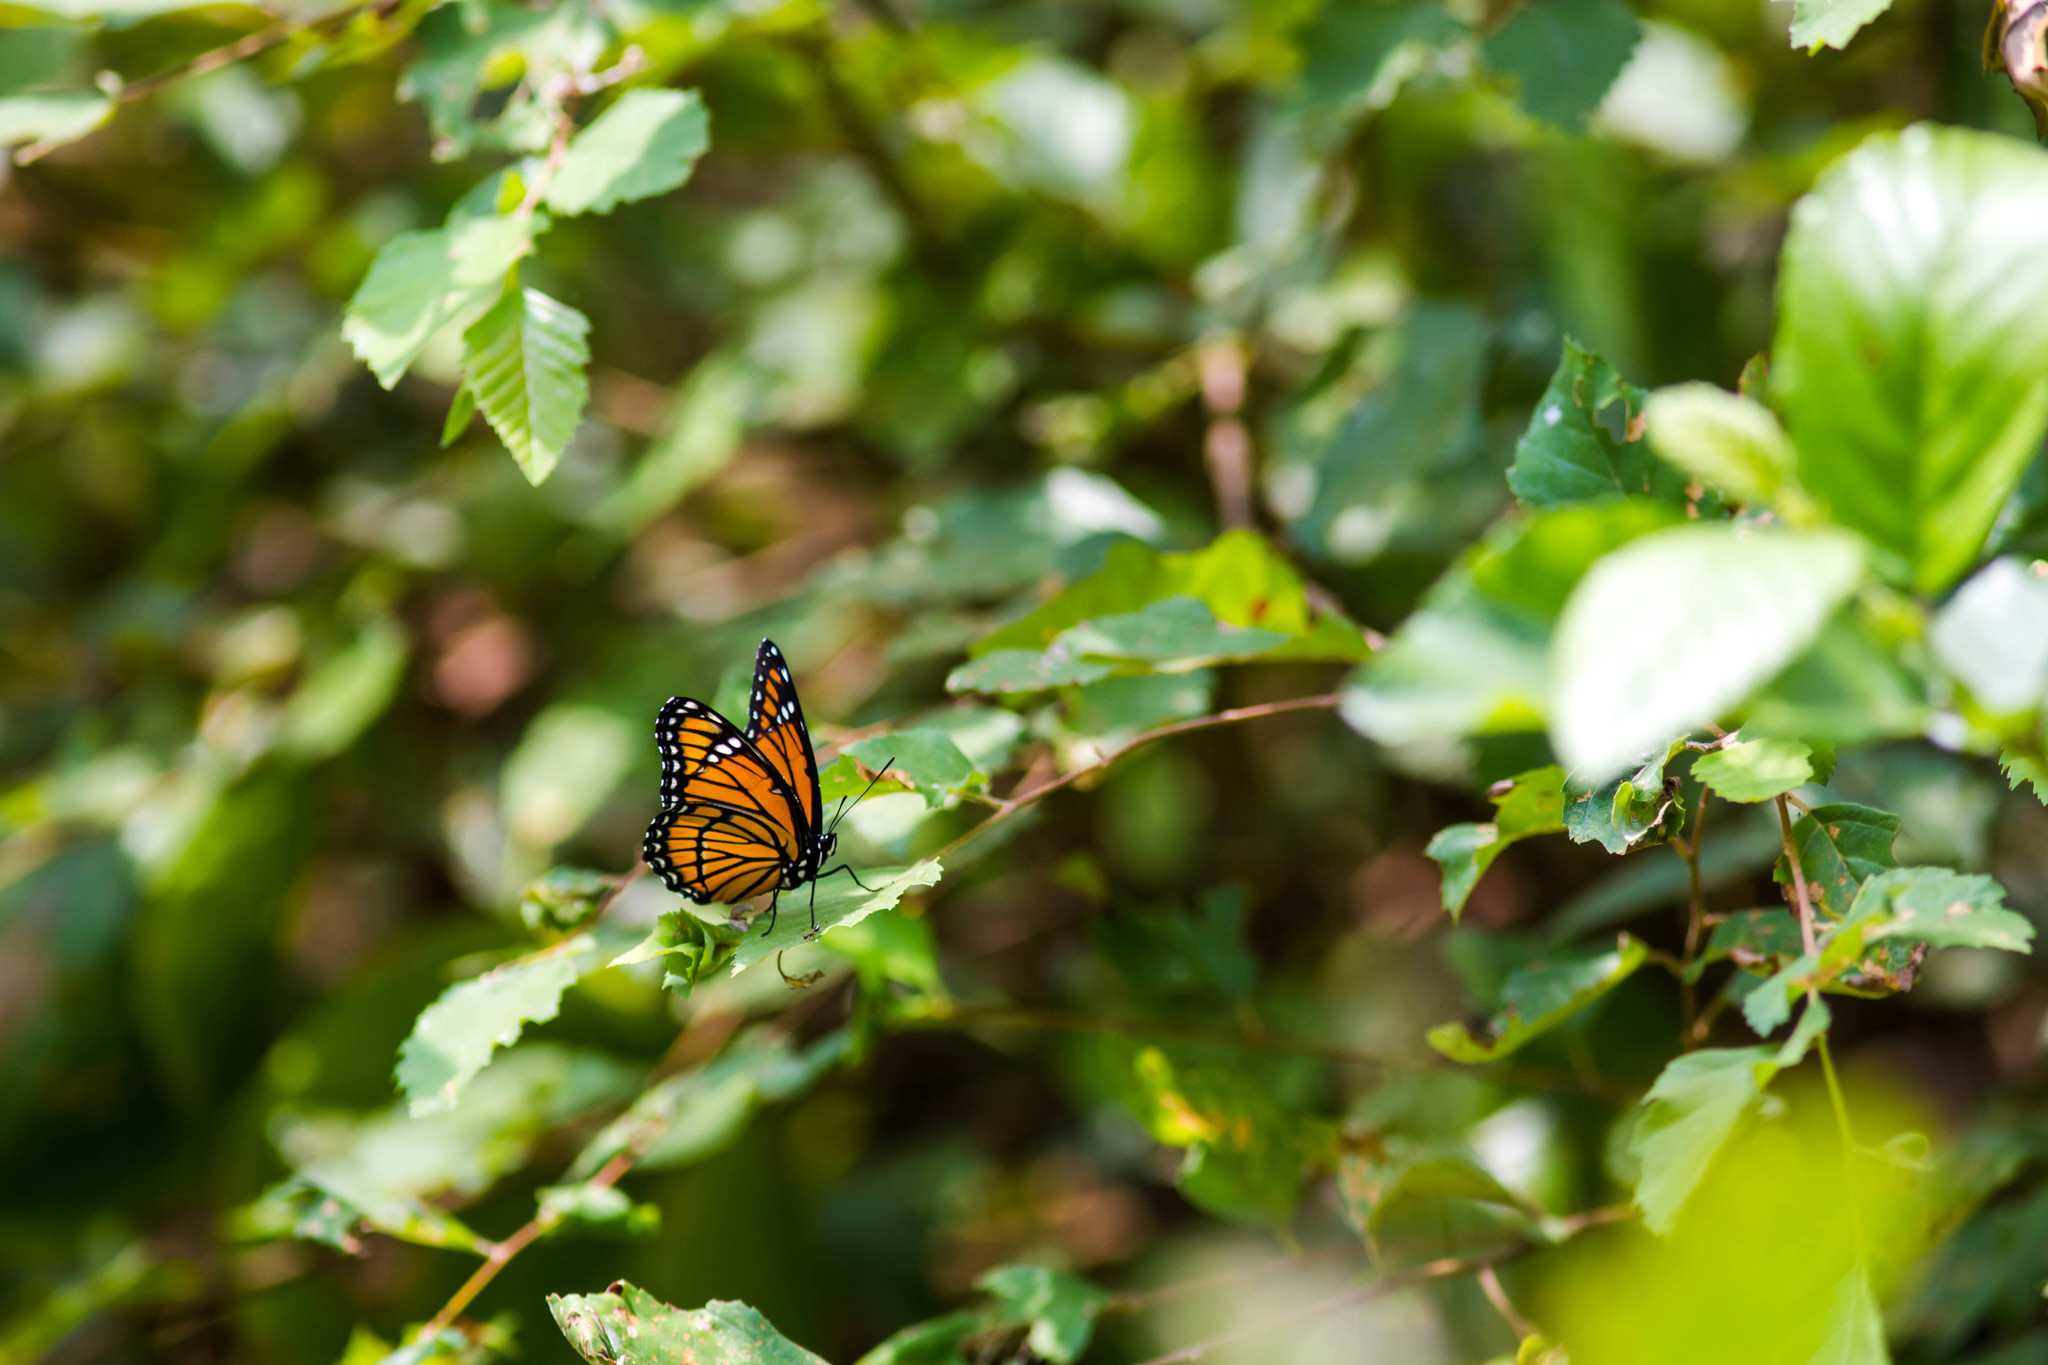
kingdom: Animalia
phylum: Arthropoda
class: Insecta
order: Lepidoptera
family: Nymphalidae
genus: Limenitis
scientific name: Limenitis archippus
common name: Viceroy
